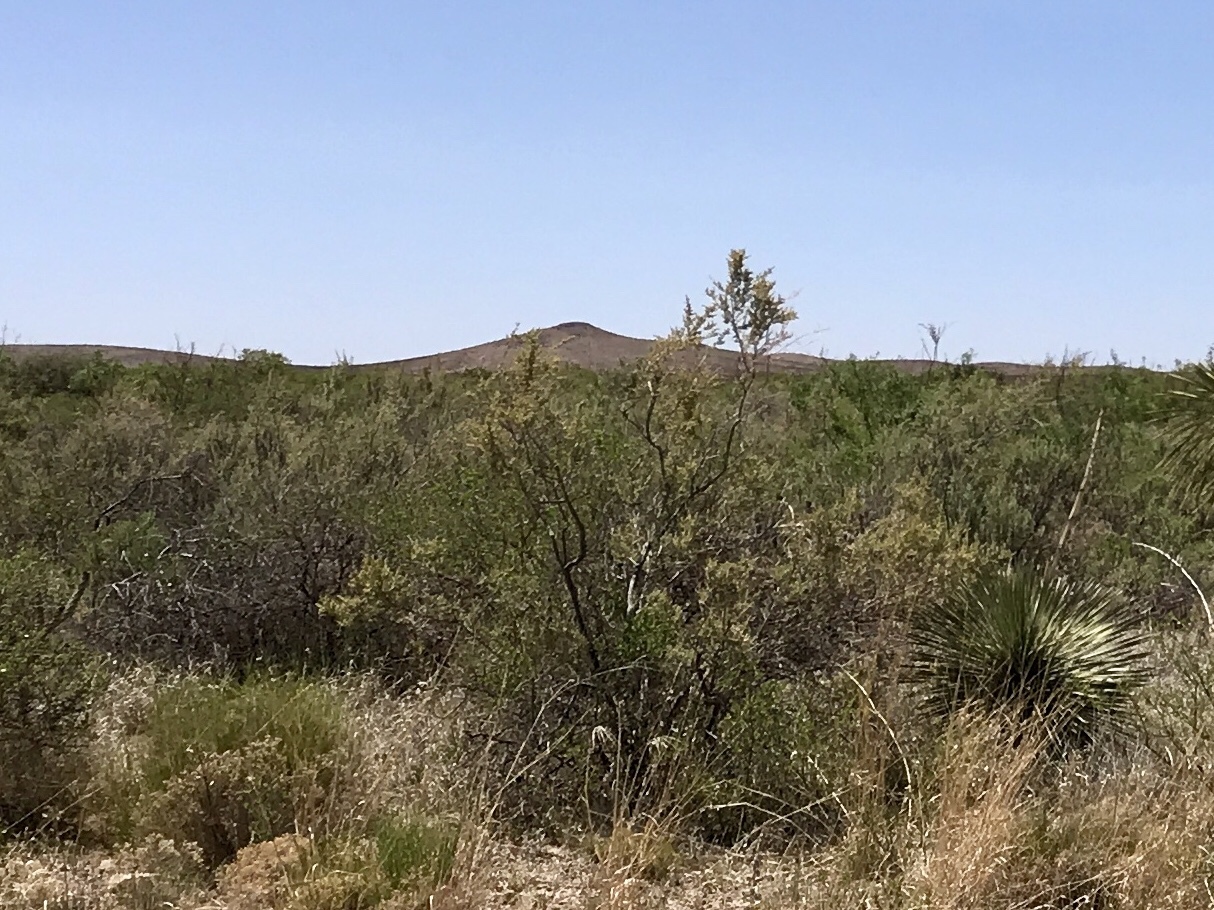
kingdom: Plantae
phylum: Tracheophyta
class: Magnoliopsida
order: Zygophyllales
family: Zygophyllaceae
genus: Larrea
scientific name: Larrea tridentata
